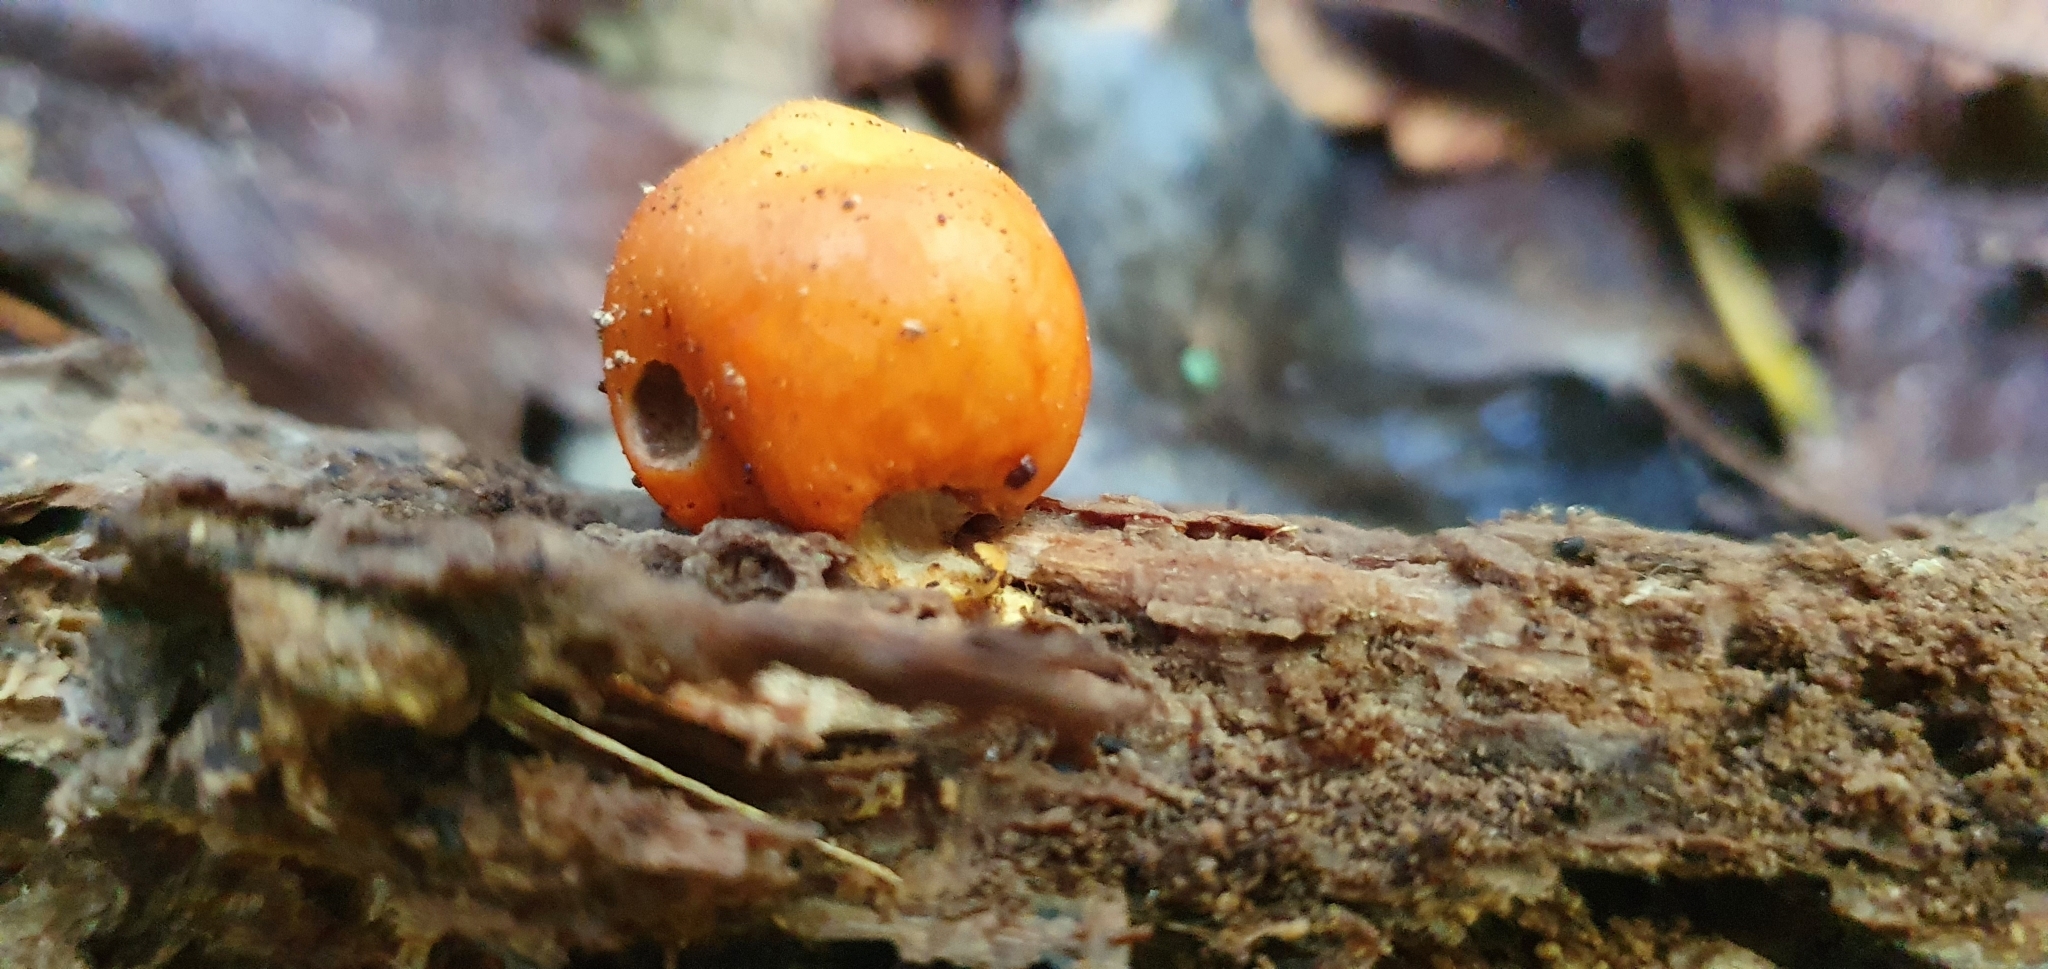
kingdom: Fungi
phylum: Basidiomycota
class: Agaricomycetes
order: Agaricales
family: Strophariaceae
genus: Leratiomyces
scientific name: Leratiomyces erythrocephalus
